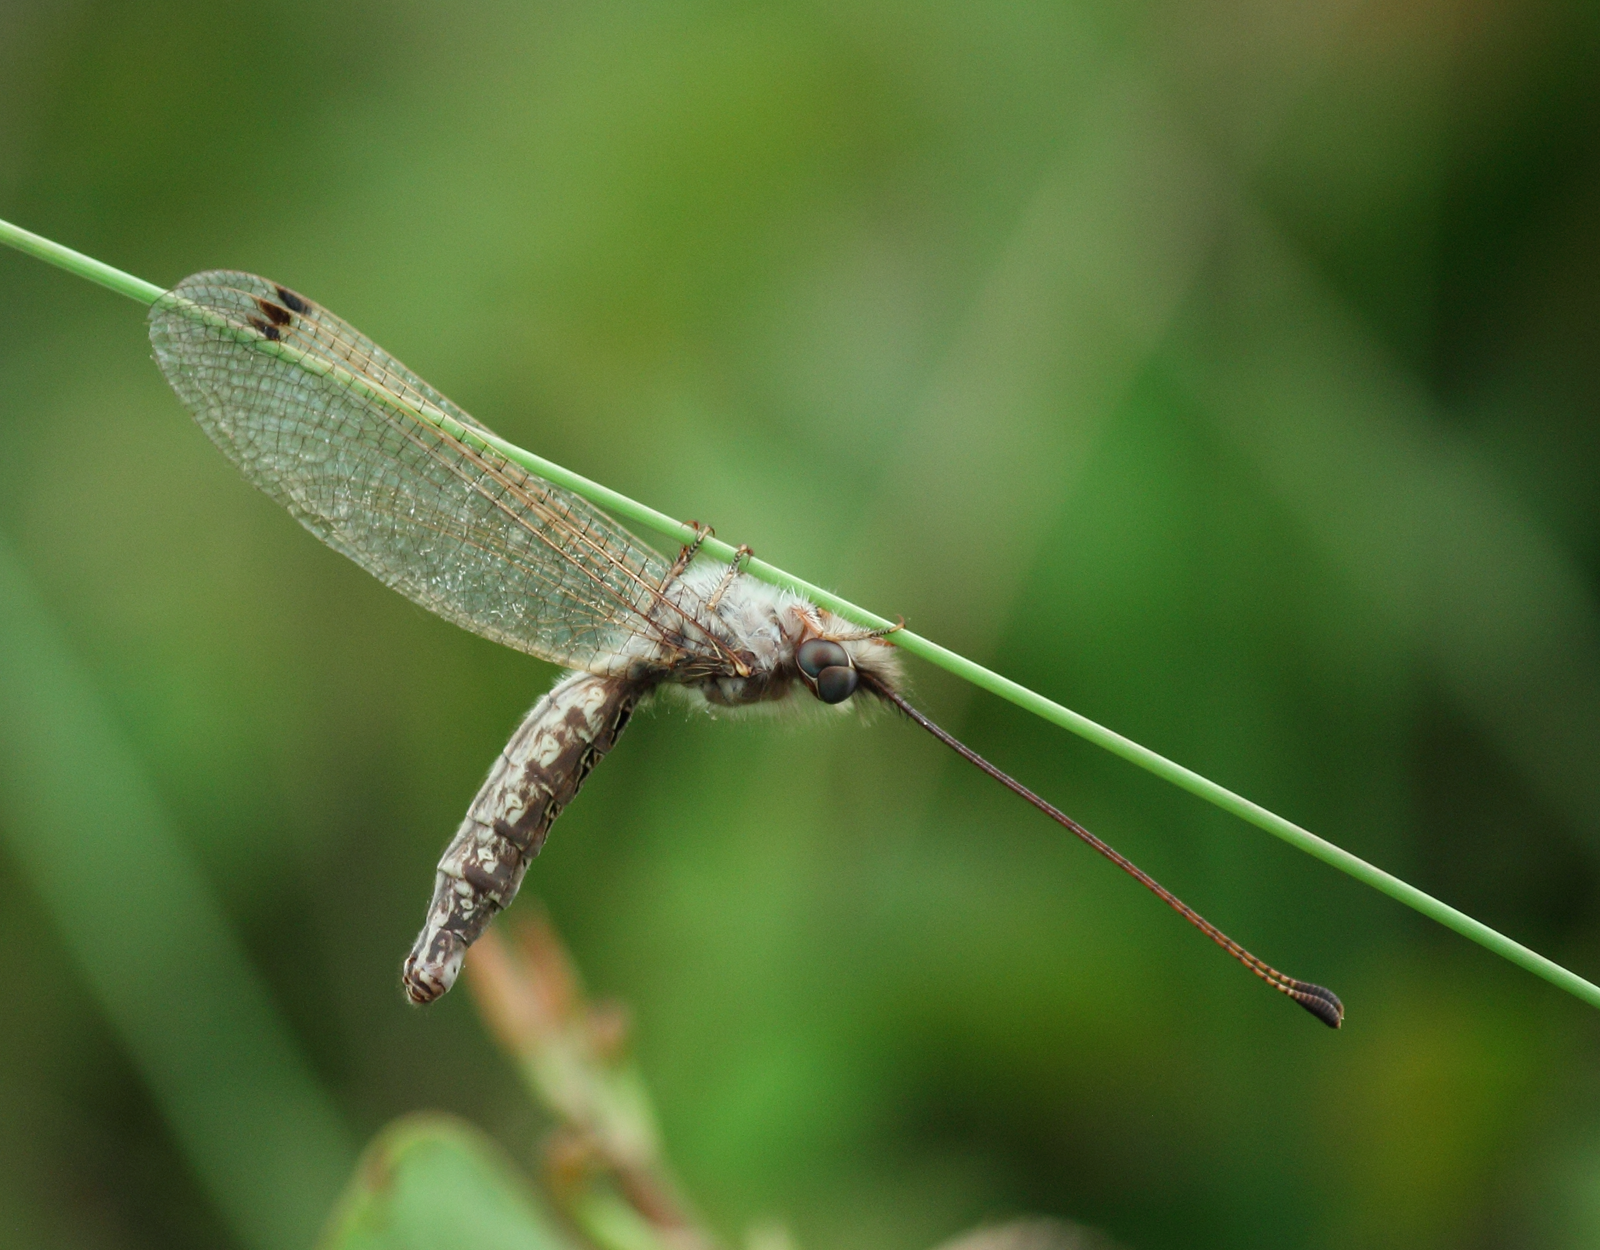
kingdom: Animalia
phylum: Arthropoda
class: Insecta
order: Neuroptera
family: Ascalaphidae
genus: Ululodes
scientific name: Ululodes macleayanus
